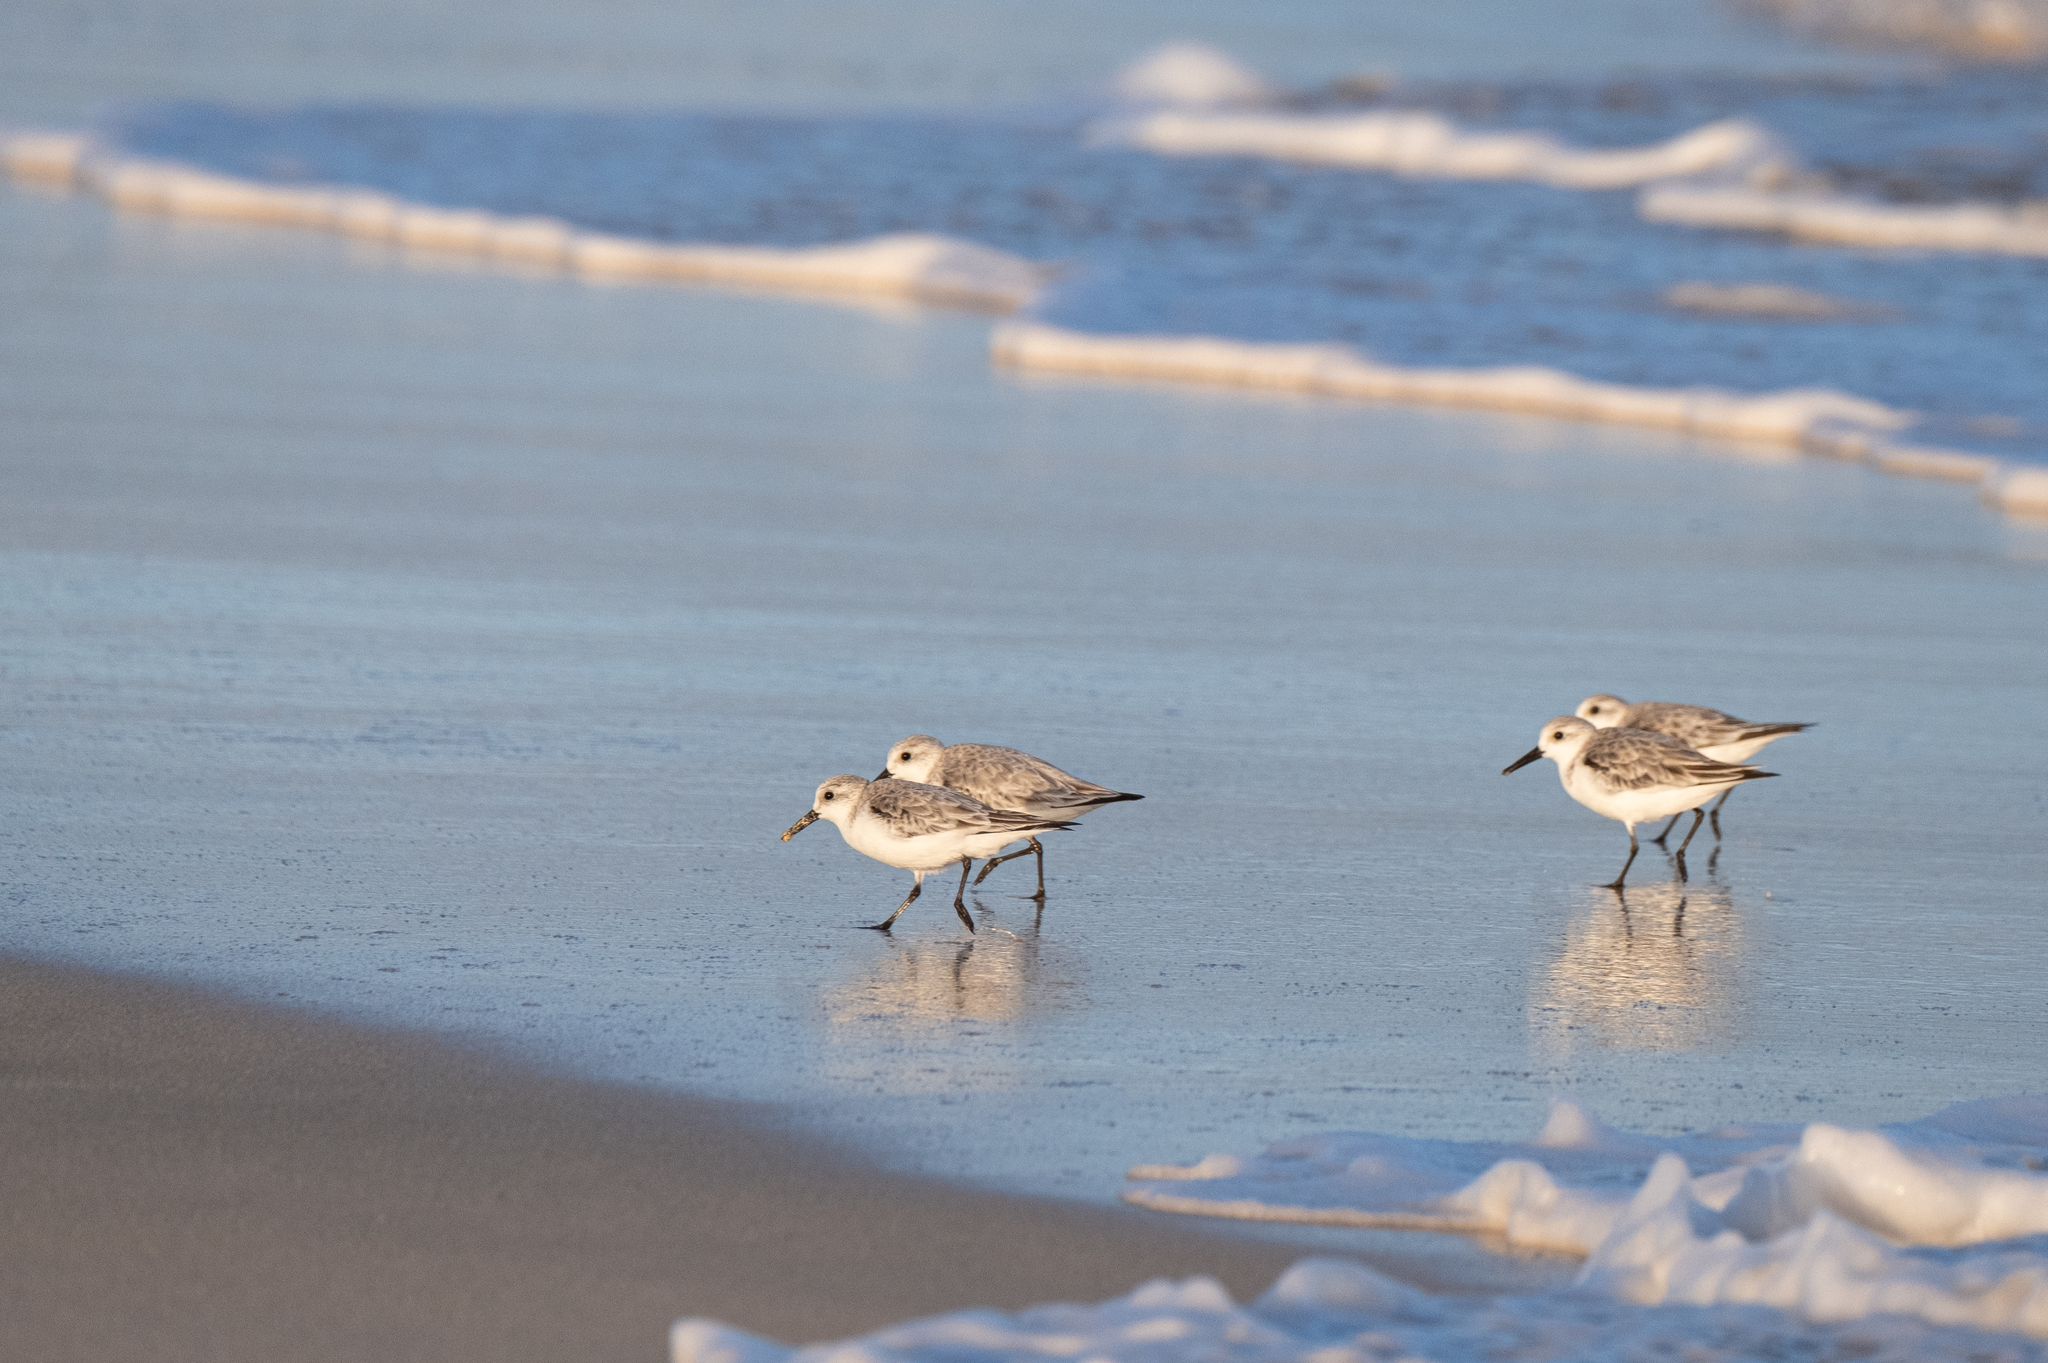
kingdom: Animalia
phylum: Chordata
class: Aves
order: Charadriiformes
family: Scolopacidae
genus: Calidris
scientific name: Calidris alba
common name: Sanderling
